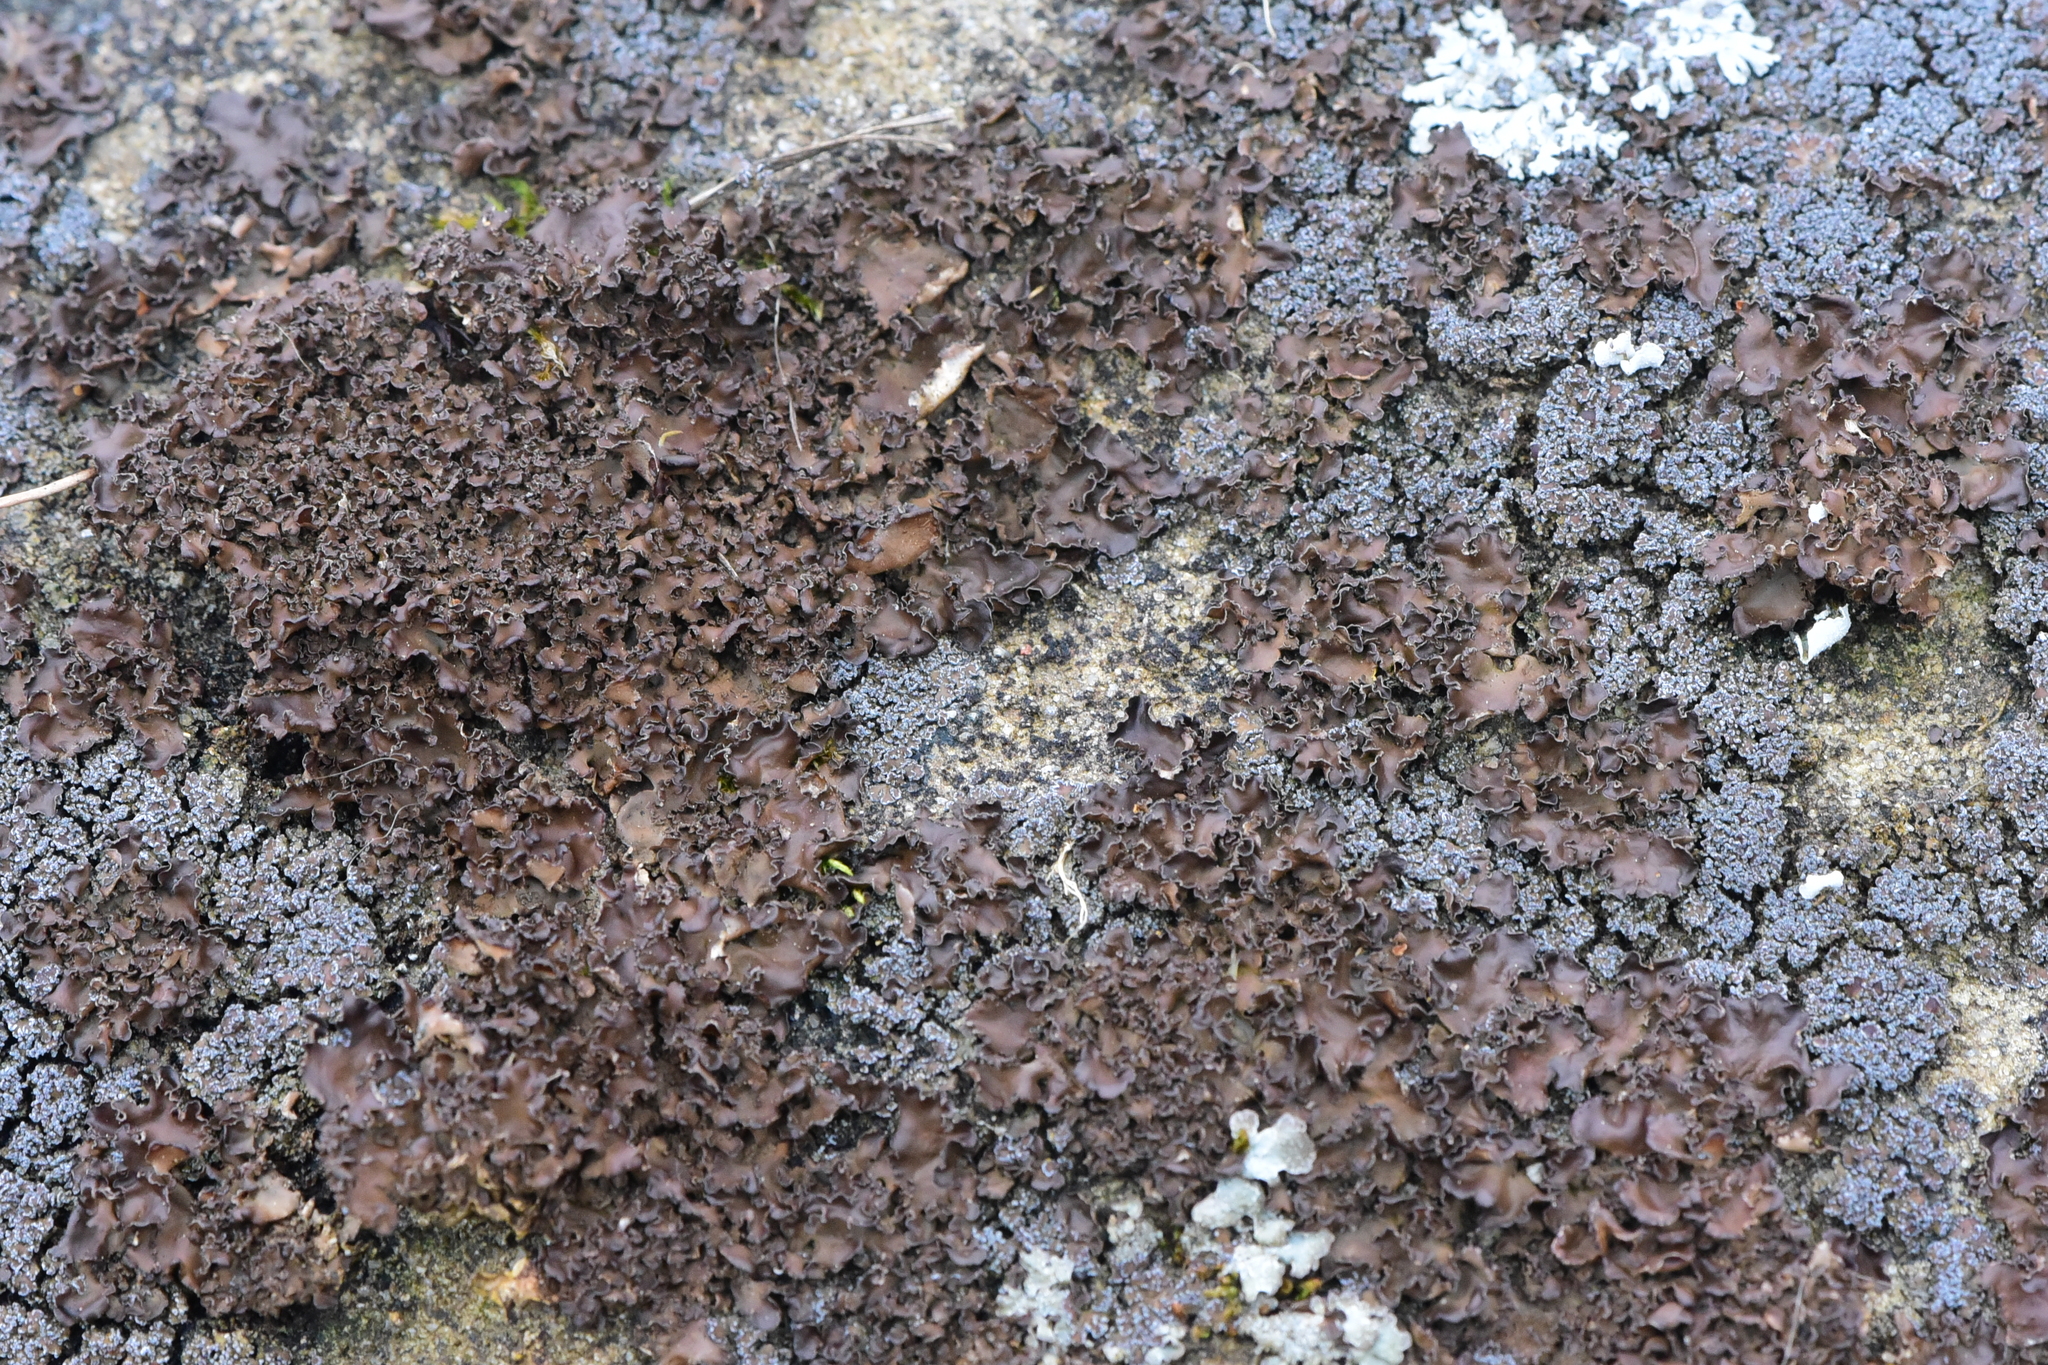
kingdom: Fungi
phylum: Ascomycota
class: Lecanoromycetes
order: Peltigerales
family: Nephromataceae
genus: Nephroma
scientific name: Nephroma laevigatum
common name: Mustard kidney lichen
